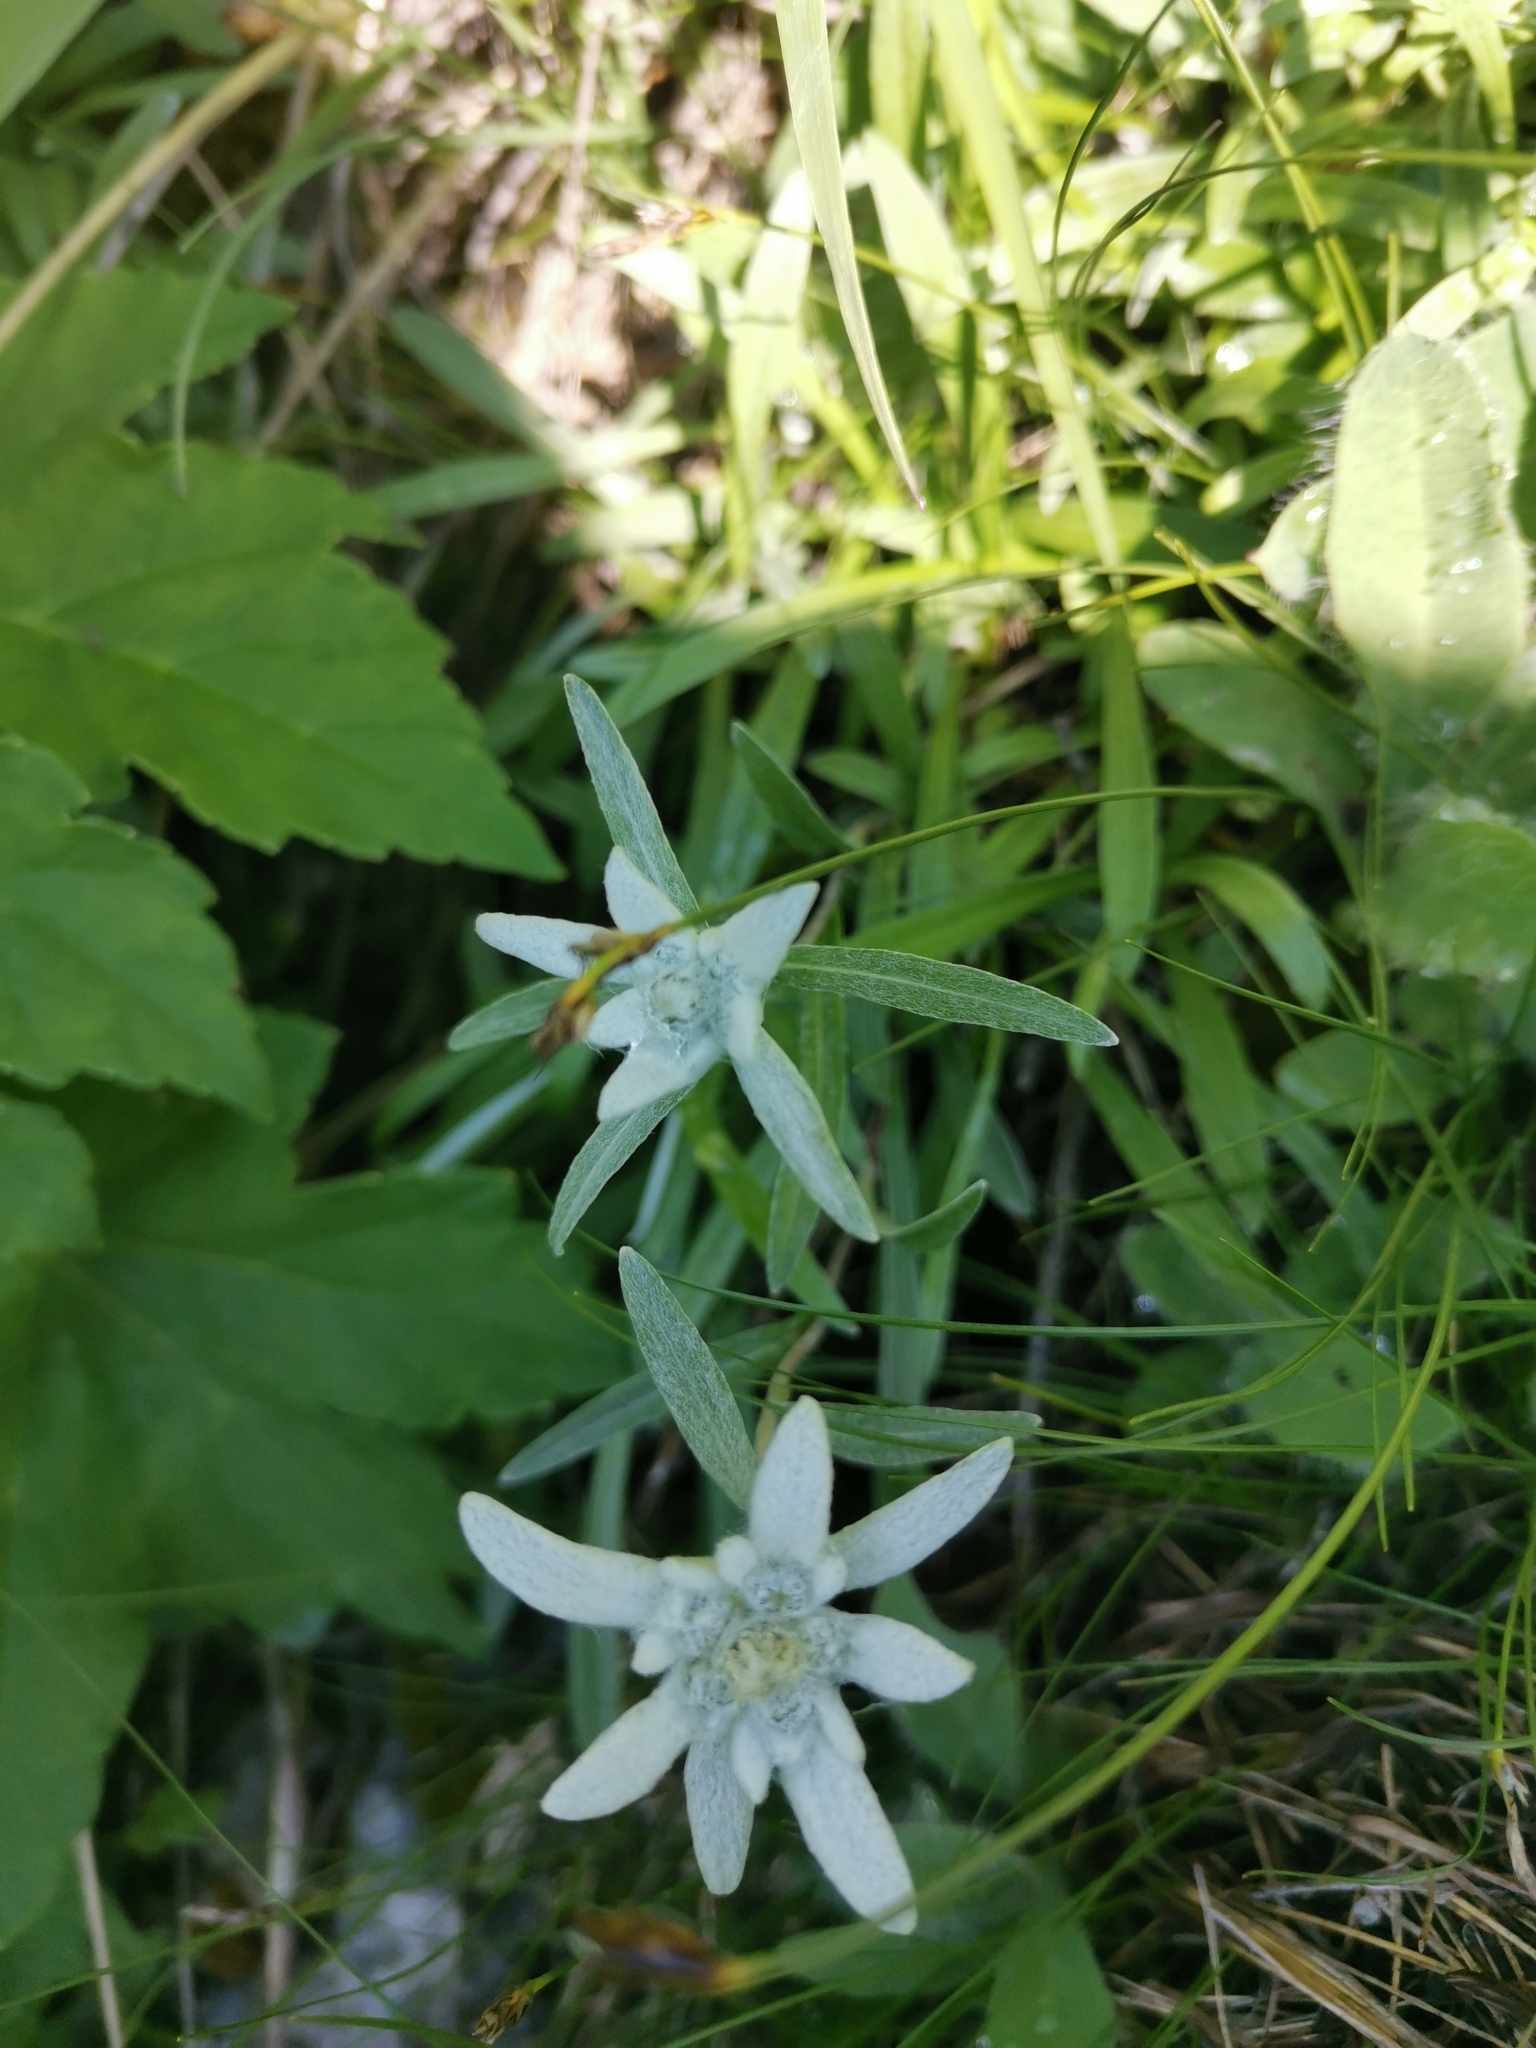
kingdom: Plantae
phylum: Tracheophyta
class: Magnoliopsida
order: Asterales
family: Asteraceae
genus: Leontopodium
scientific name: Leontopodium nivale
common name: Edelweiss
